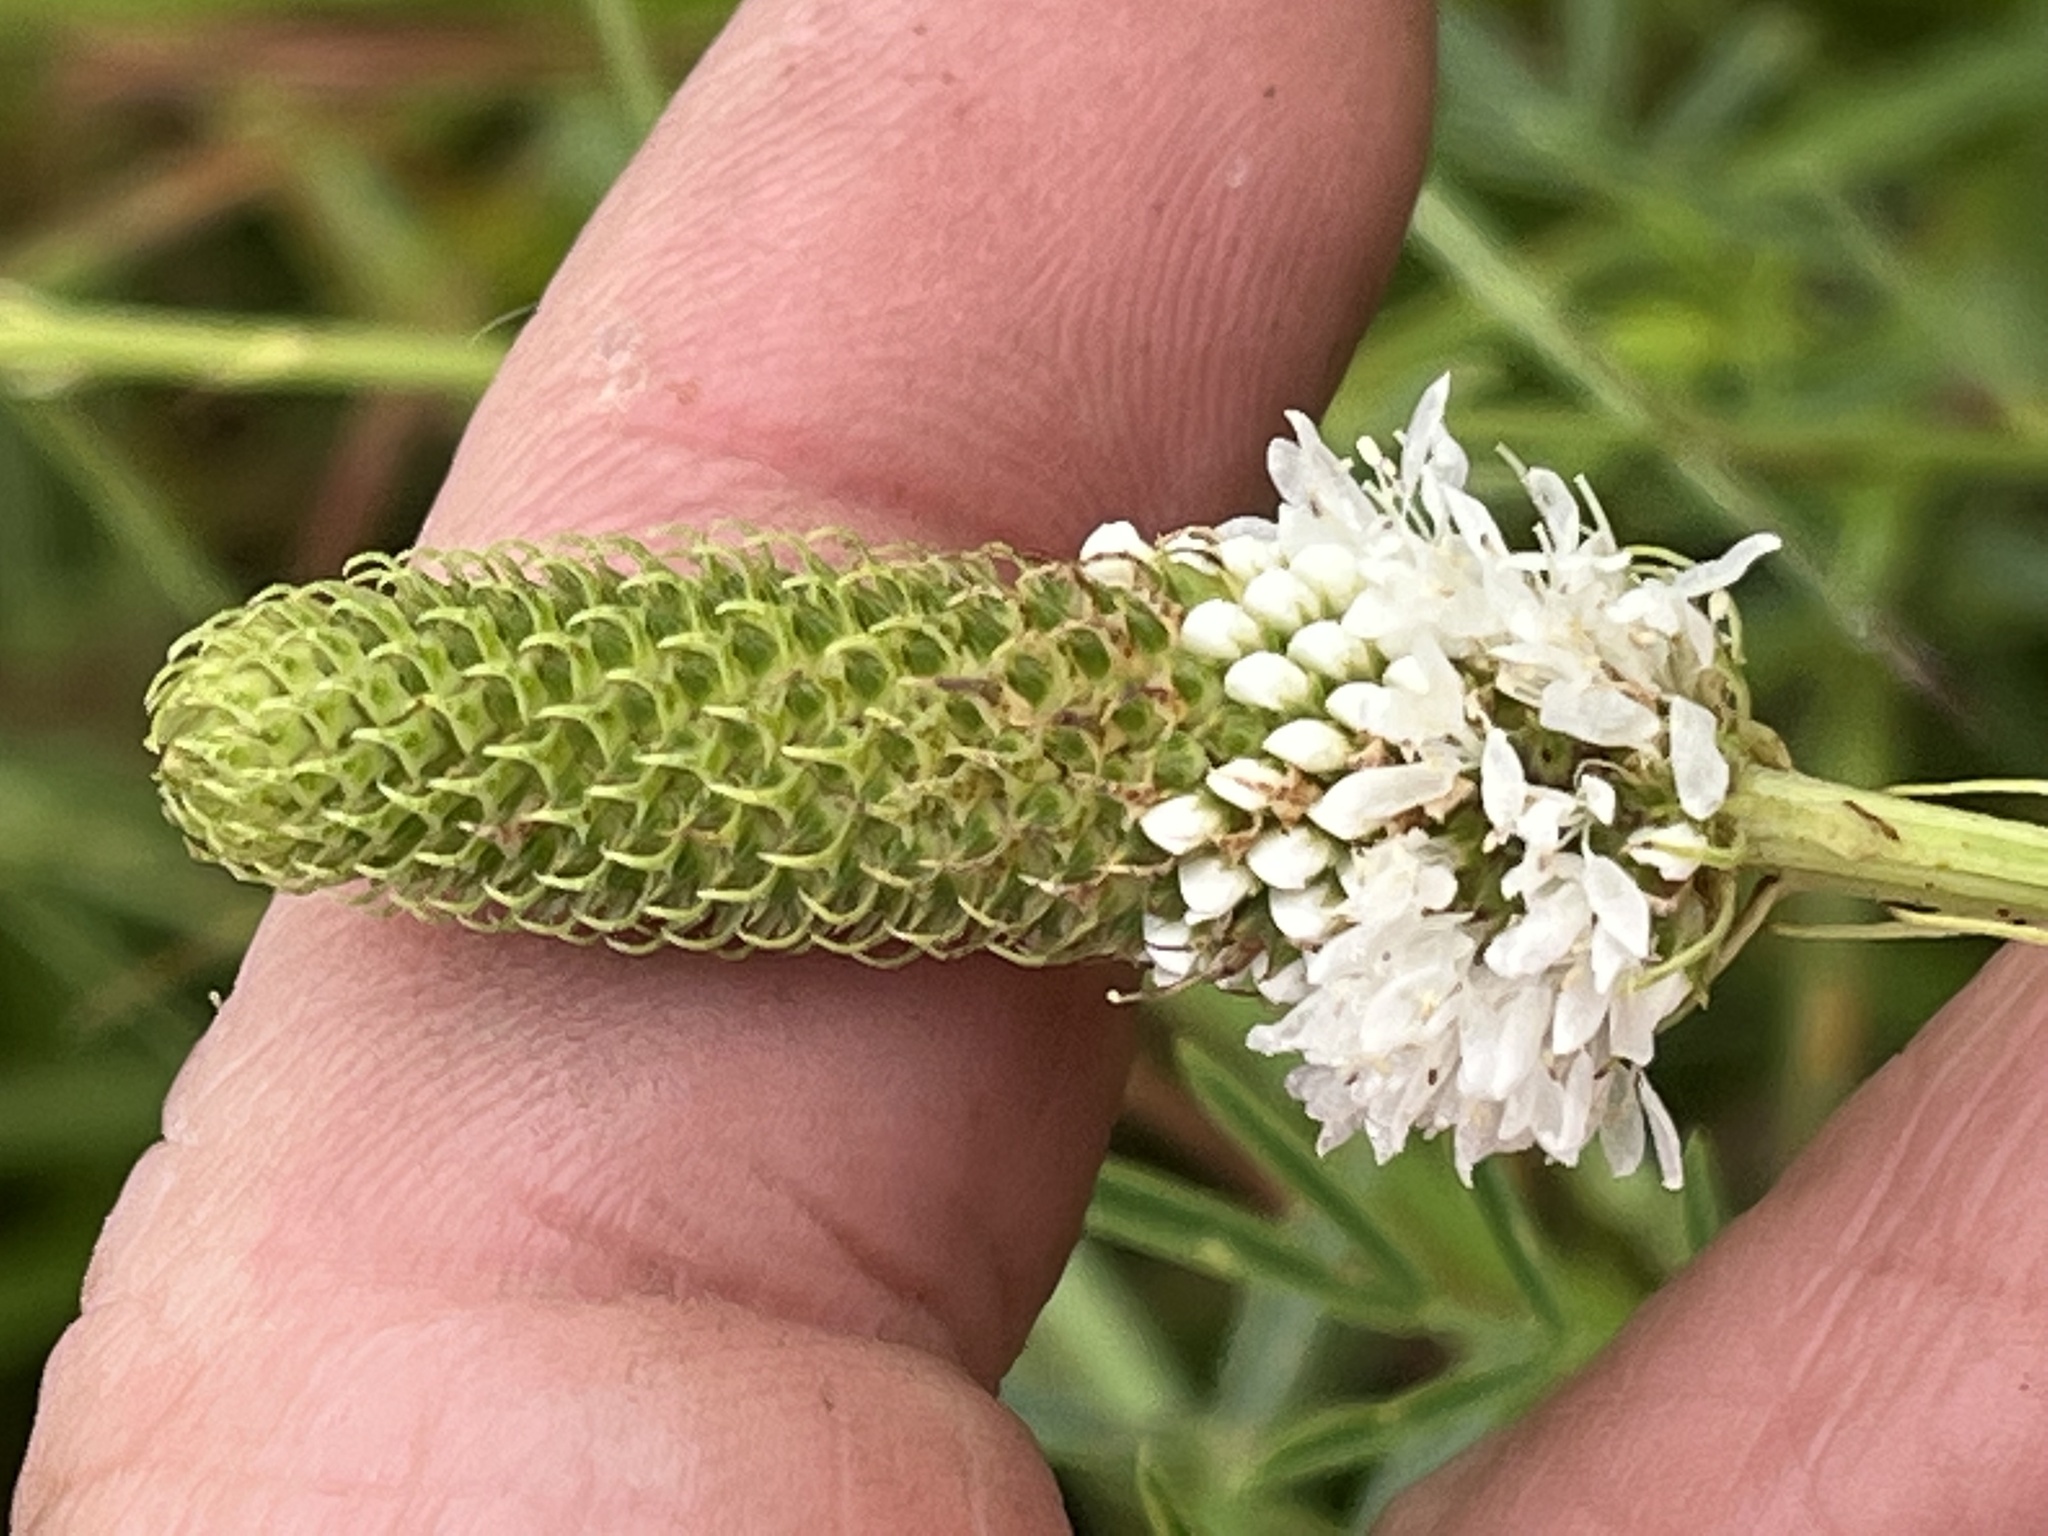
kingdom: Plantae
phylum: Tracheophyta
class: Magnoliopsida
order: Fabales
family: Fabaceae
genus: Dalea
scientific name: Dalea candida
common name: White prairie-clover
